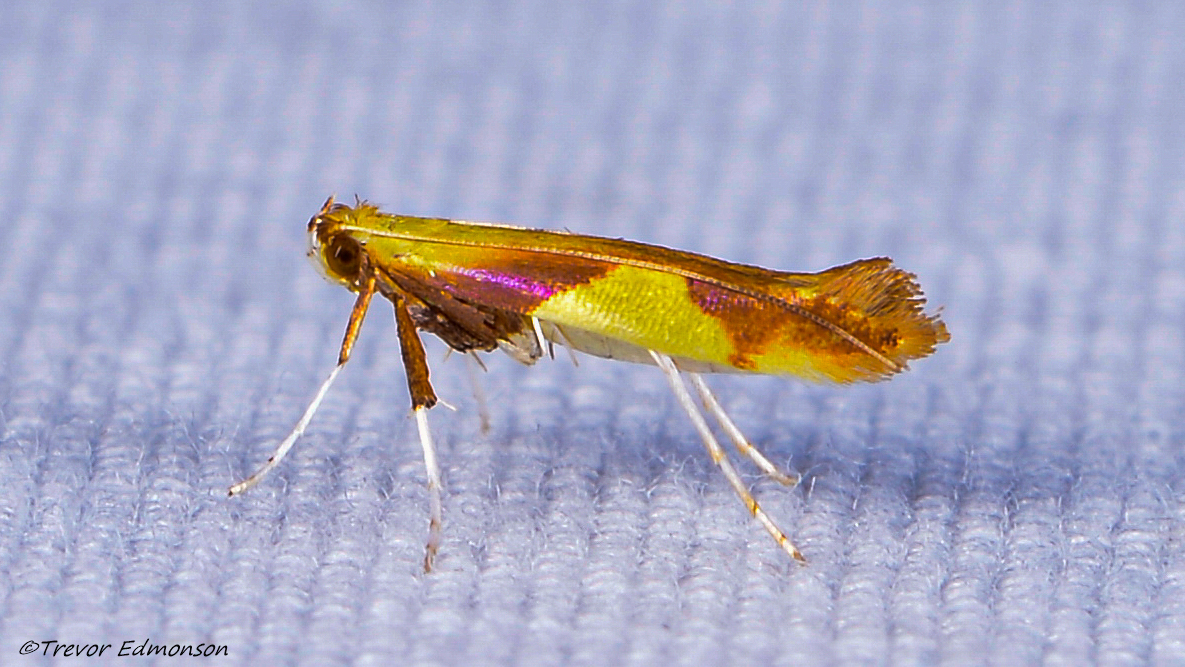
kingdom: Animalia
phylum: Arthropoda
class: Insecta
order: Lepidoptera
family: Gracillariidae
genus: Caloptilia
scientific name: Caloptilia packardella
